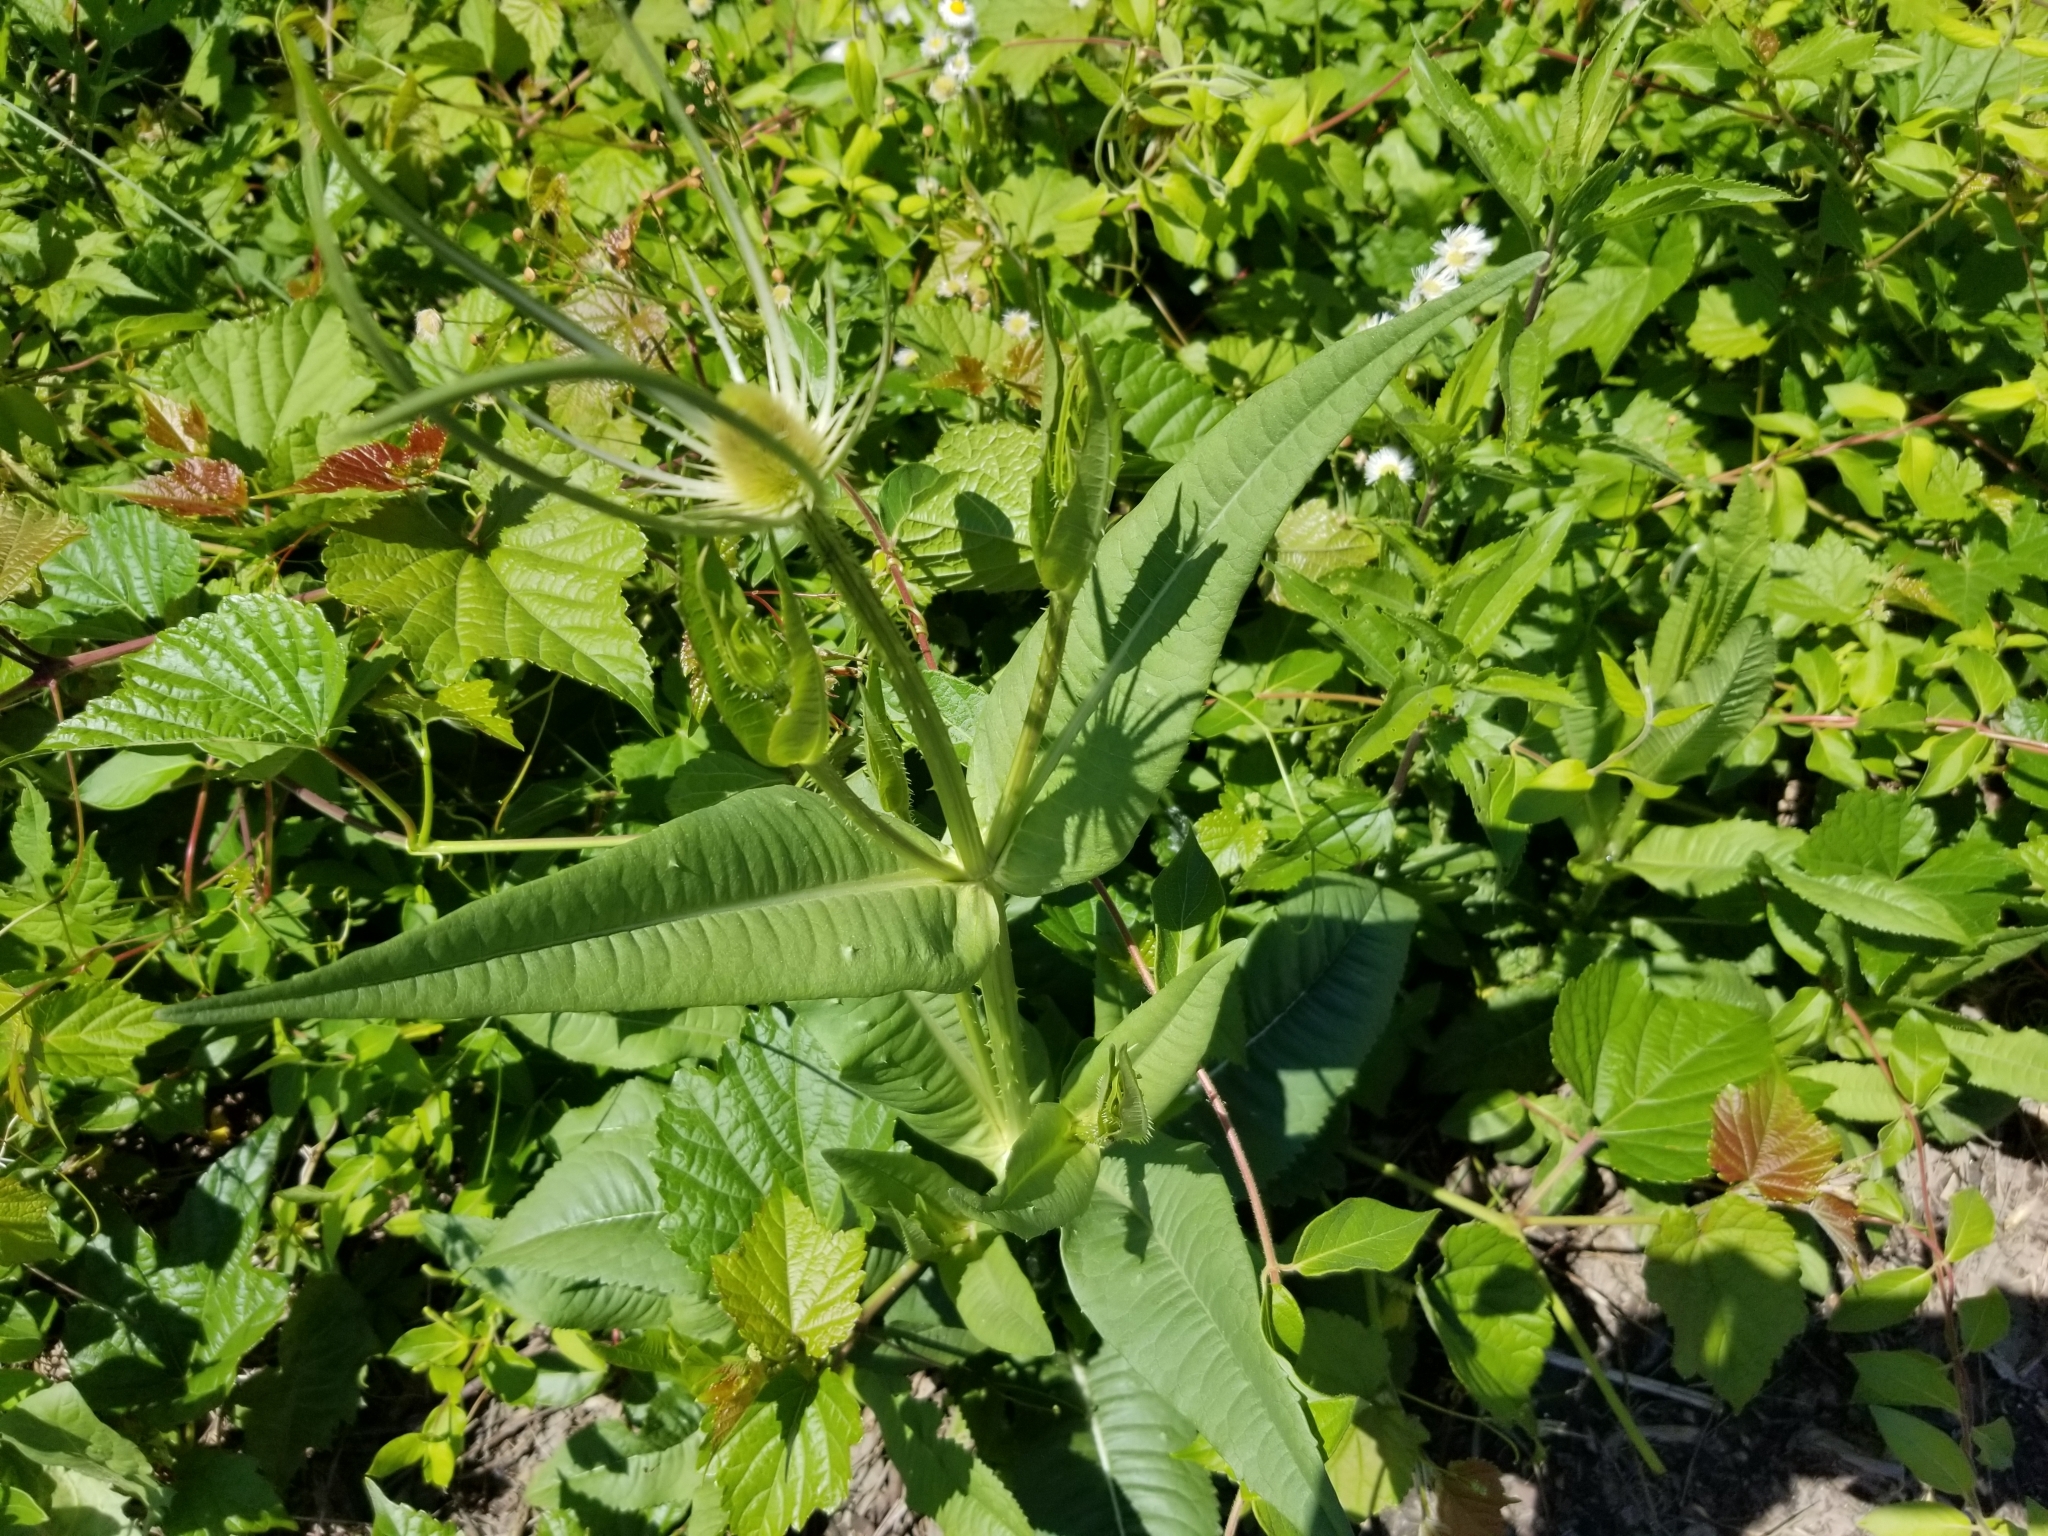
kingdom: Plantae
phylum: Tracheophyta
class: Magnoliopsida
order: Dipsacales
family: Caprifoliaceae
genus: Dipsacus
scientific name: Dipsacus fullonum
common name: Teasel
